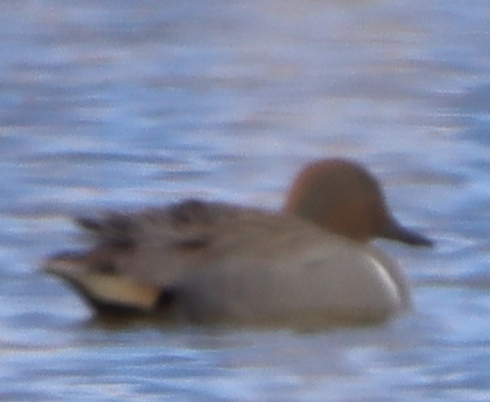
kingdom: Animalia
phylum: Chordata
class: Aves
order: Anseriformes
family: Anatidae
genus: Anas
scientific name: Anas crecca
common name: Eurasian teal
